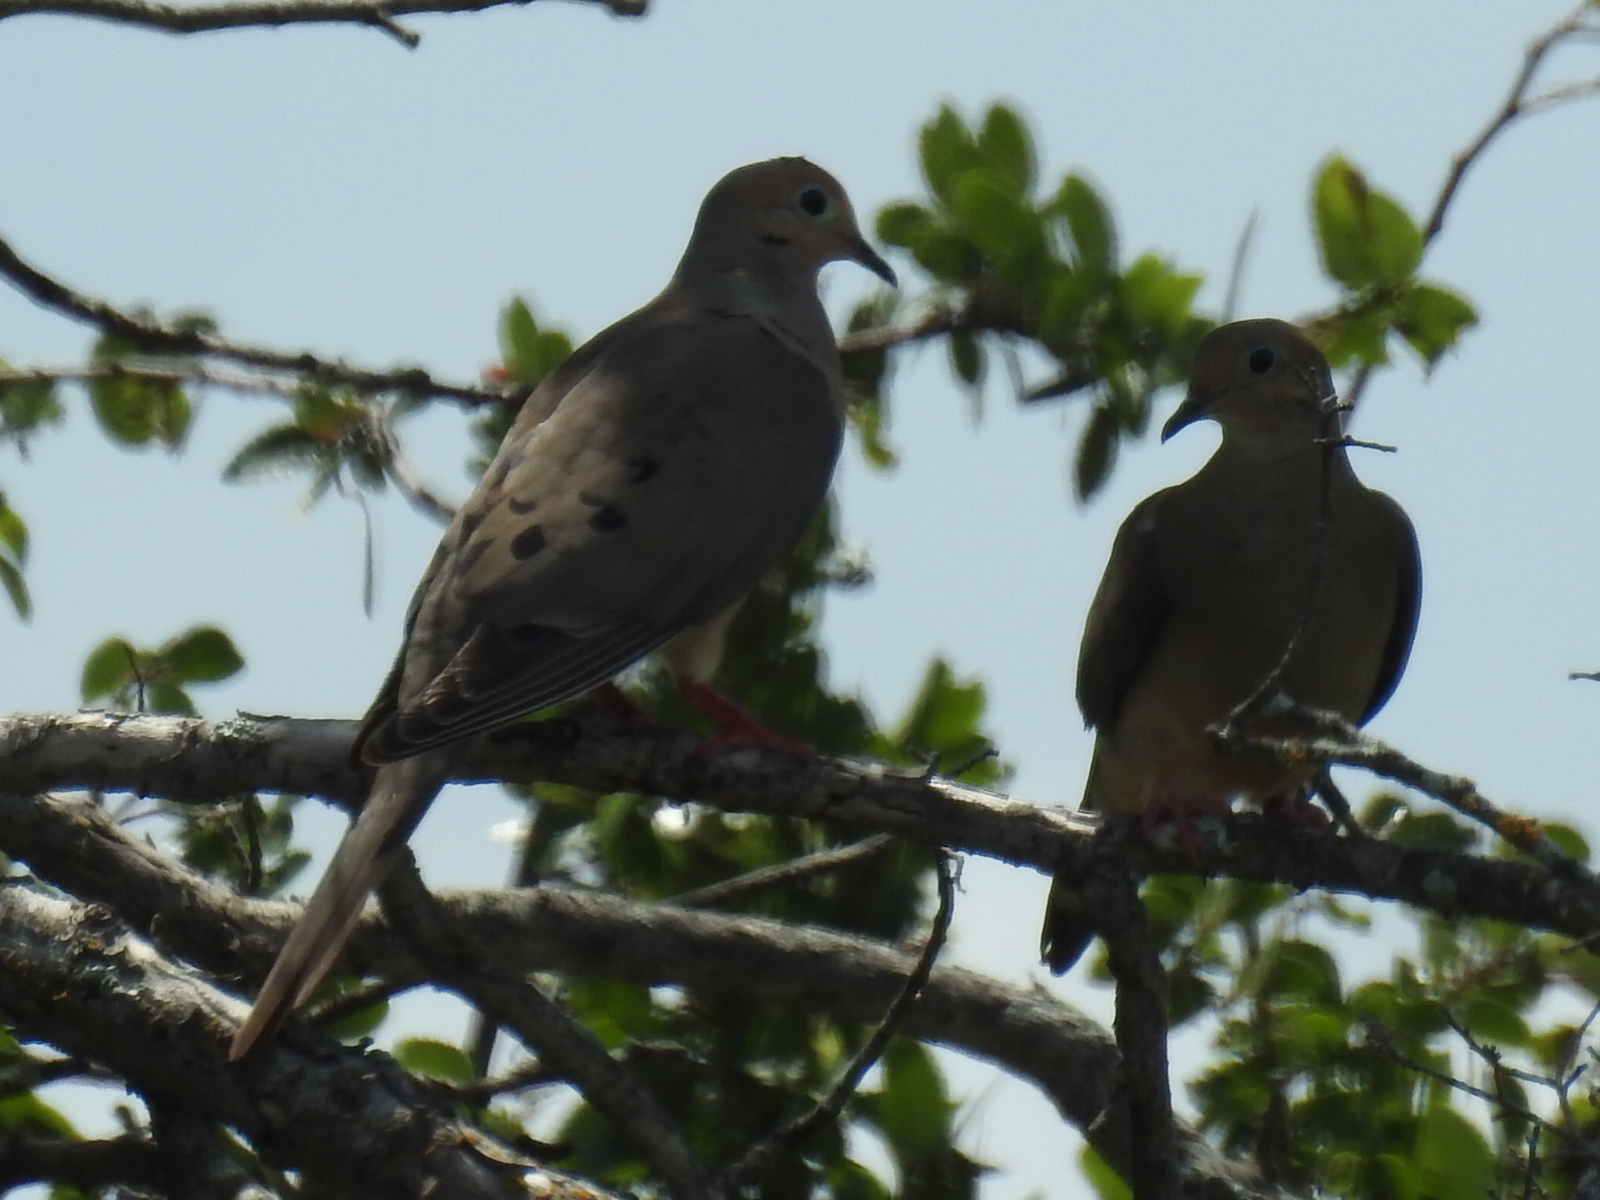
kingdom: Animalia
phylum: Chordata
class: Aves
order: Columbiformes
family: Columbidae
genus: Zenaida
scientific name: Zenaida macroura
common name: Mourning dove
